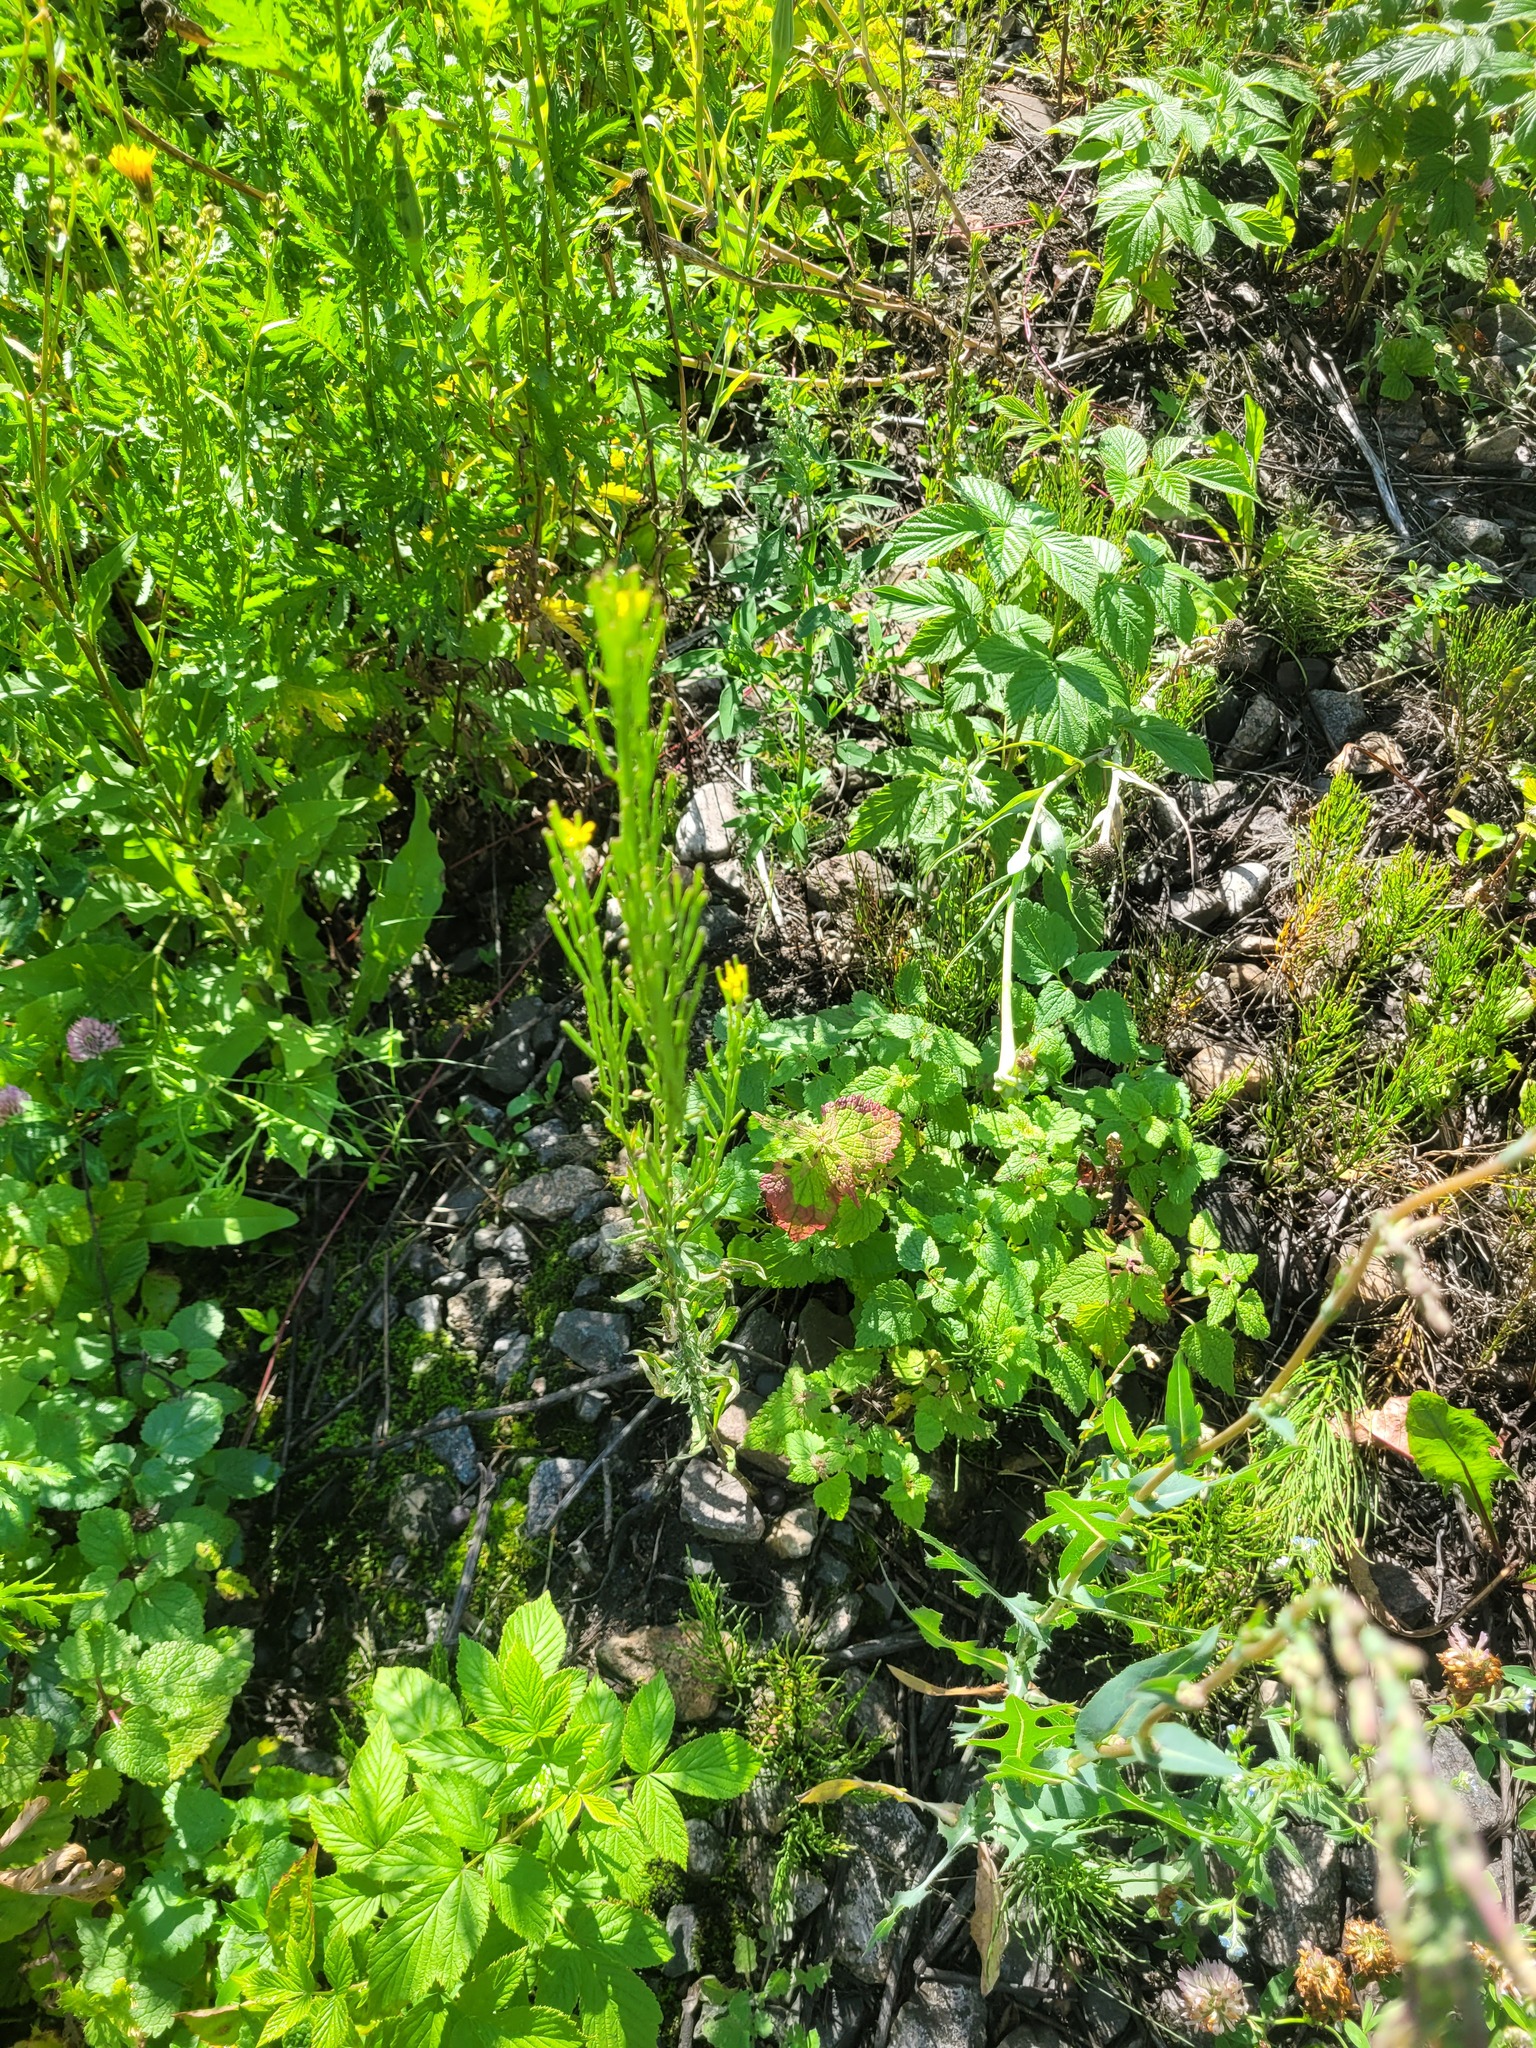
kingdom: Plantae
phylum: Tracheophyta
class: Magnoliopsida
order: Brassicales
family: Brassicaceae
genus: Erysimum
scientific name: Erysimum hieraciifolium
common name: European wallflower
